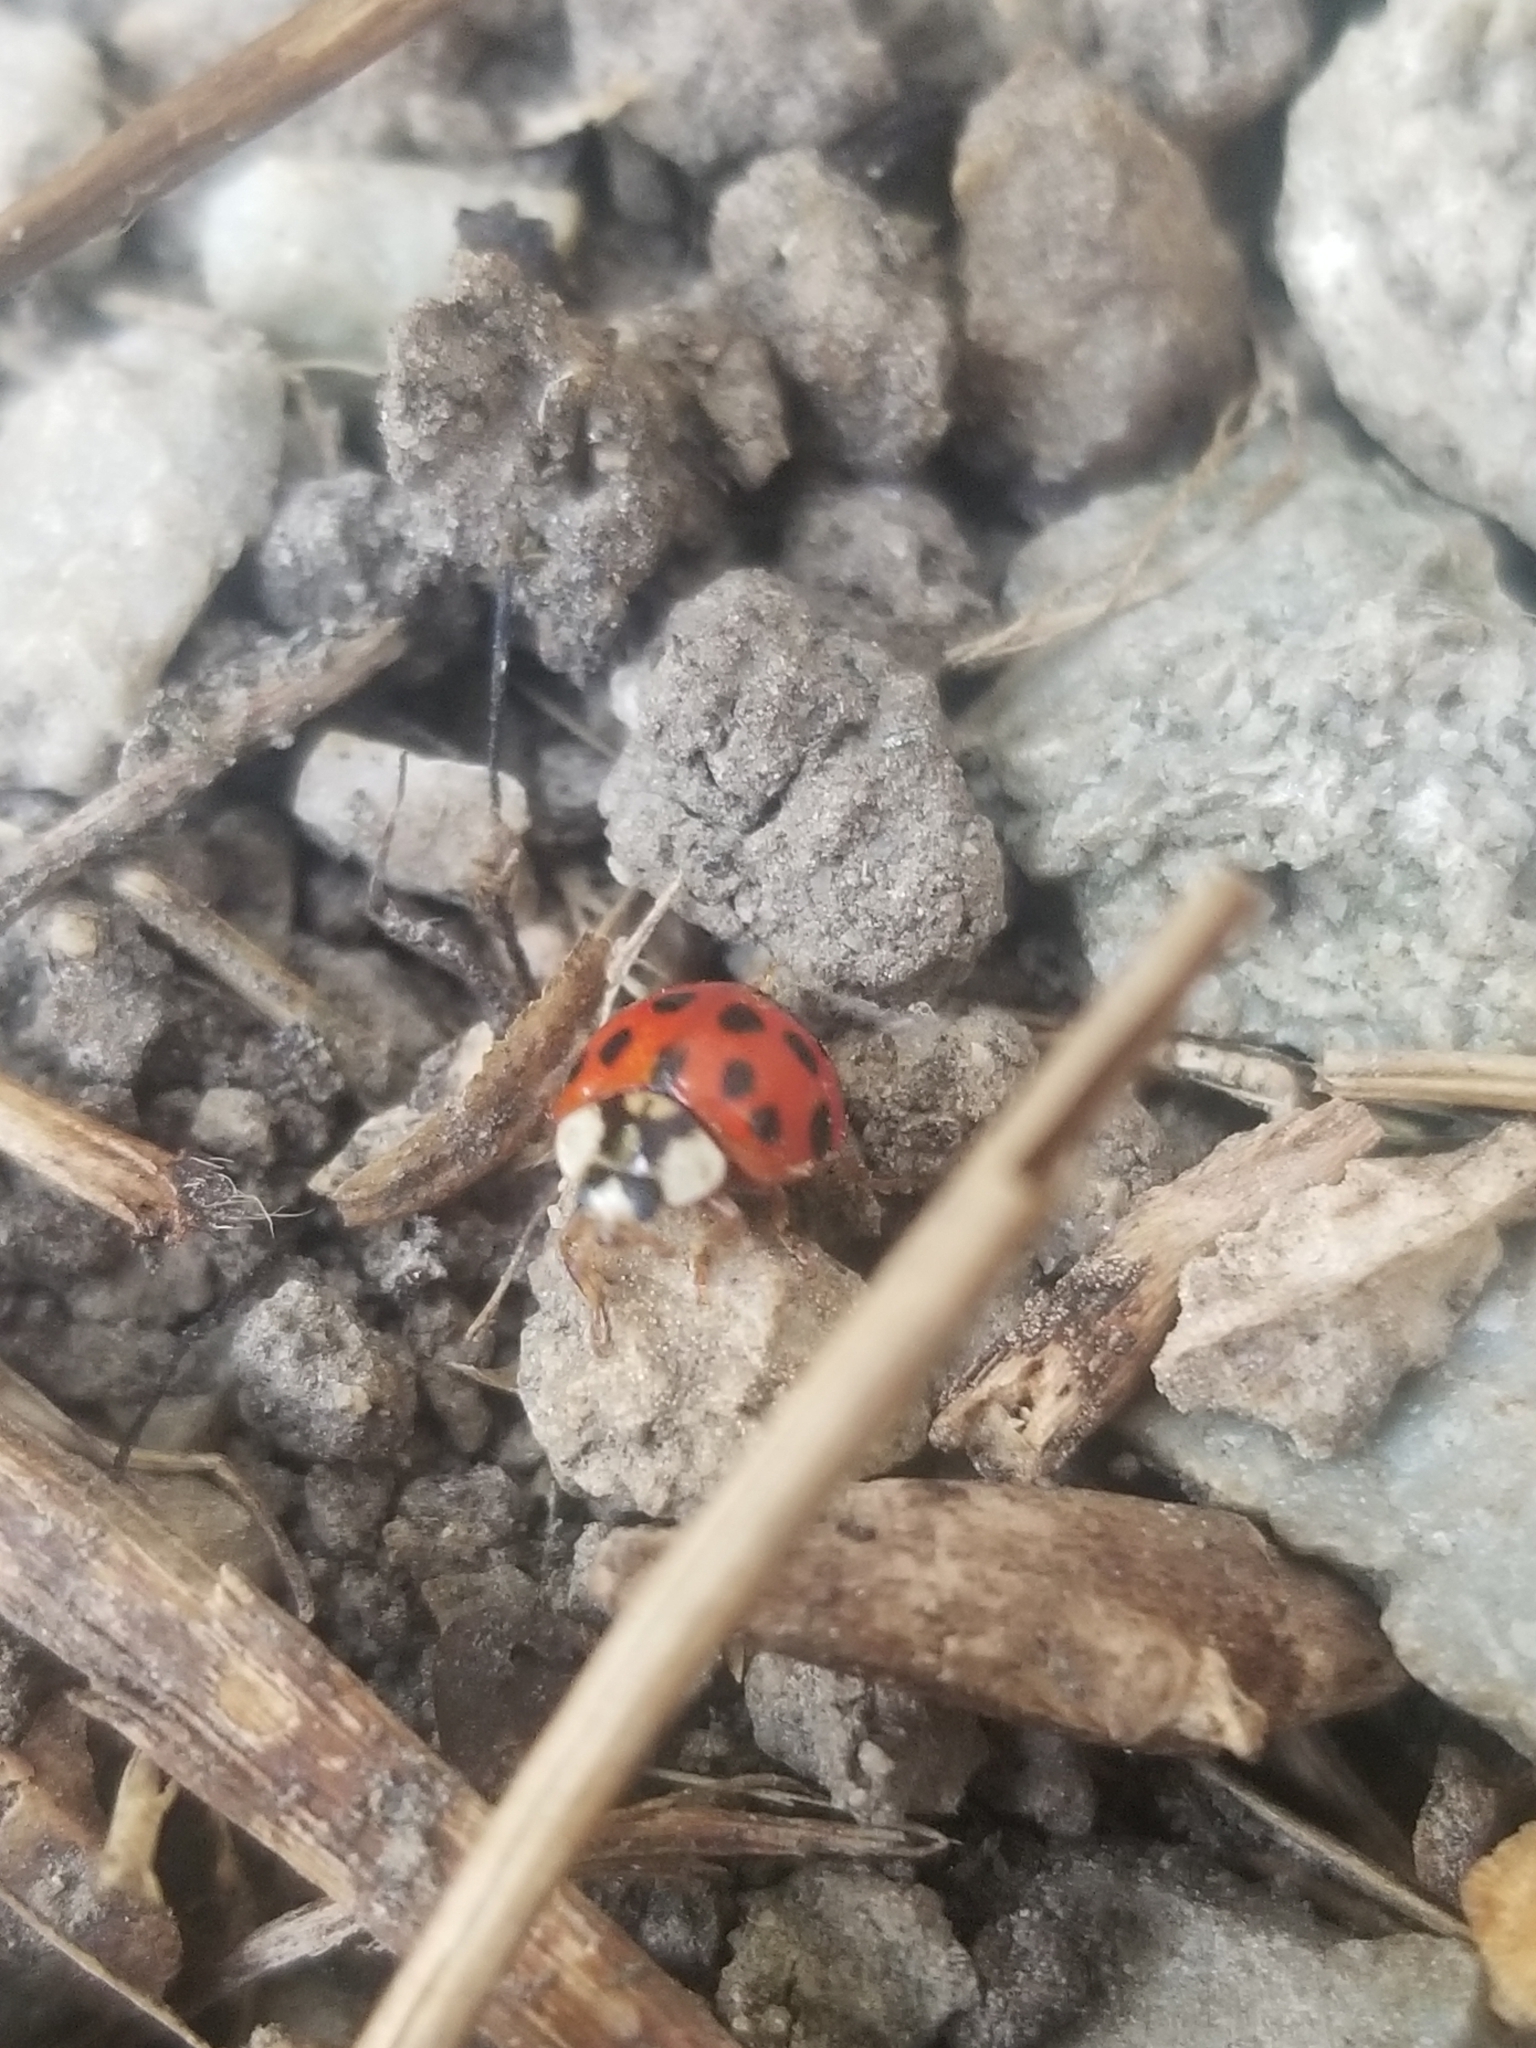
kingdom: Animalia
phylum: Arthropoda
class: Insecta
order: Coleoptera
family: Coccinellidae
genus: Harmonia
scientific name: Harmonia axyridis
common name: Harlequin ladybird
